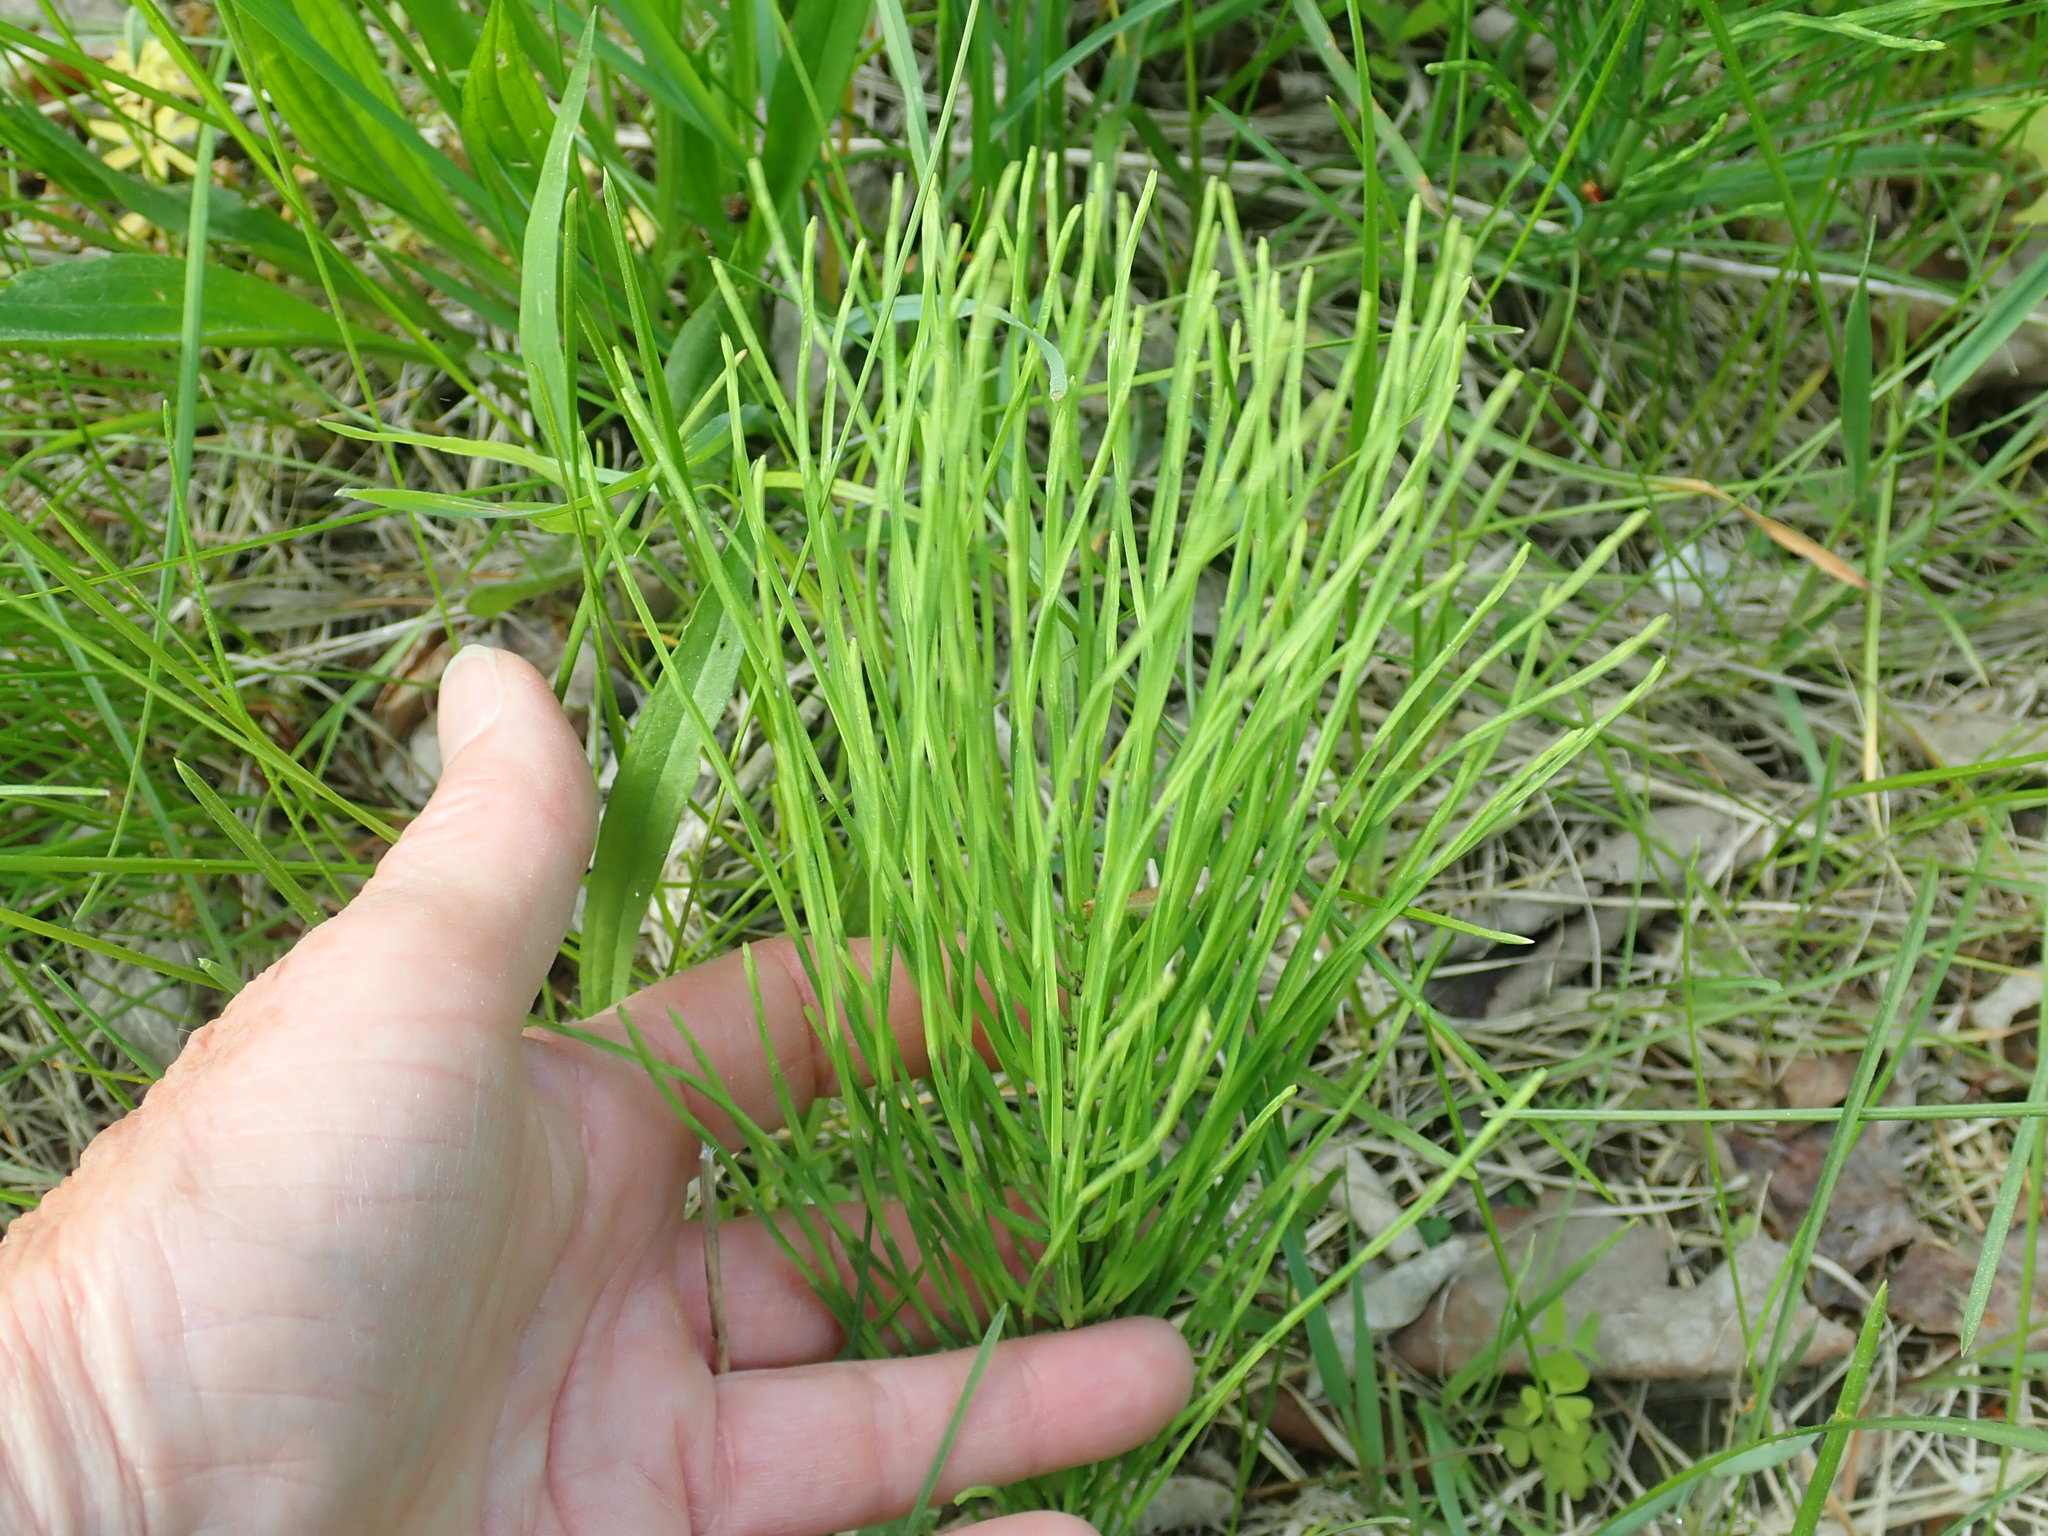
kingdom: Plantae
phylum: Tracheophyta
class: Polypodiopsida
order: Equisetales
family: Equisetaceae
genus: Equisetum
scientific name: Equisetum arvense
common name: Field horsetail
